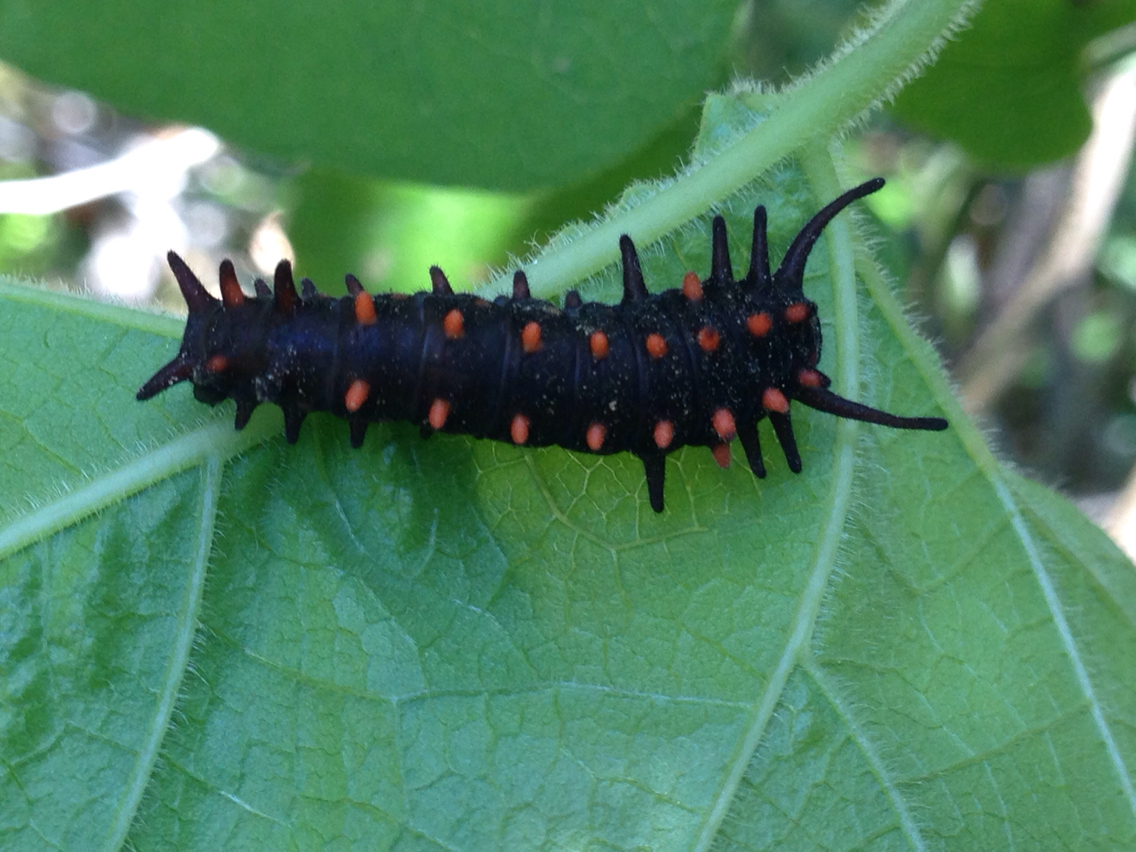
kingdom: Animalia
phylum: Arthropoda
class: Insecta
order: Lepidoptera
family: Papilionidae
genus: Battus
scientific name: Battus philenor
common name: Pipevine swallowtail
